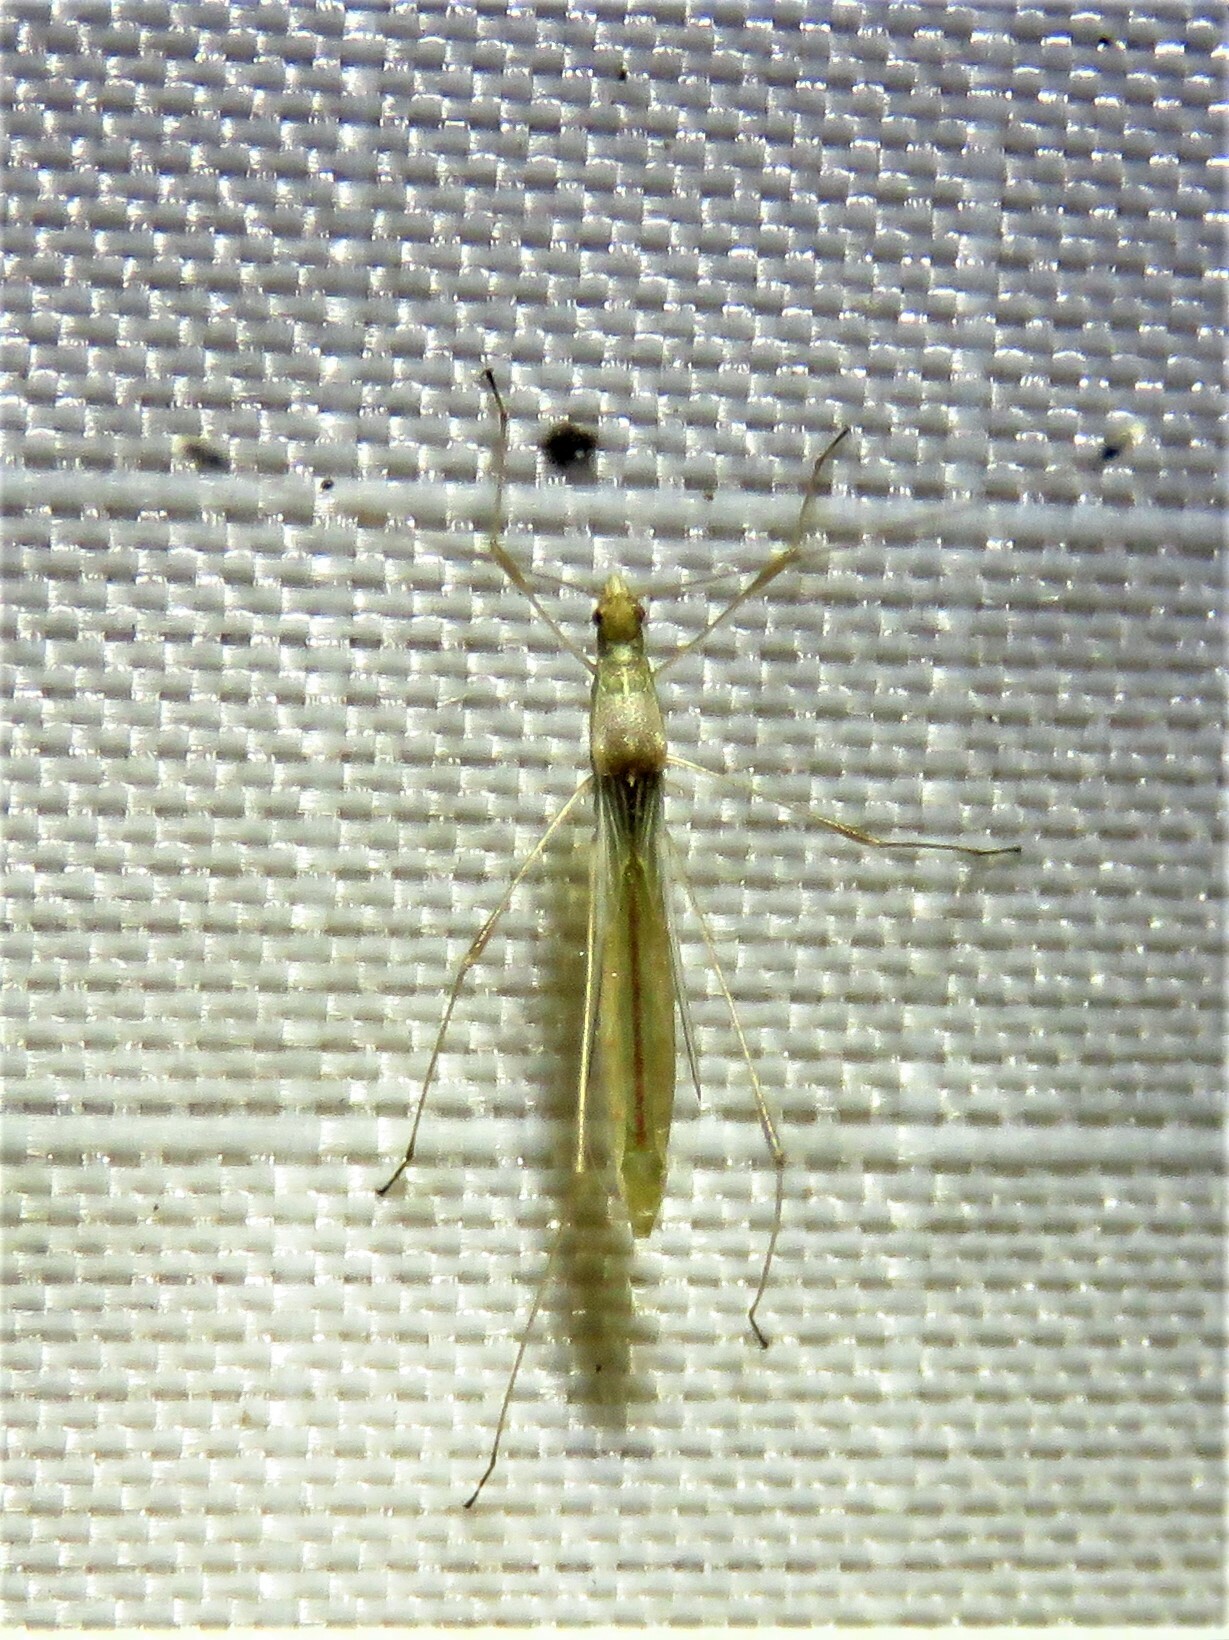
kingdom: Animalia
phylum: Arthropoda
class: Insecta
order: Hemiptera
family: Berytidae
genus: Metacanthus
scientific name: Metacanthus multispinus
